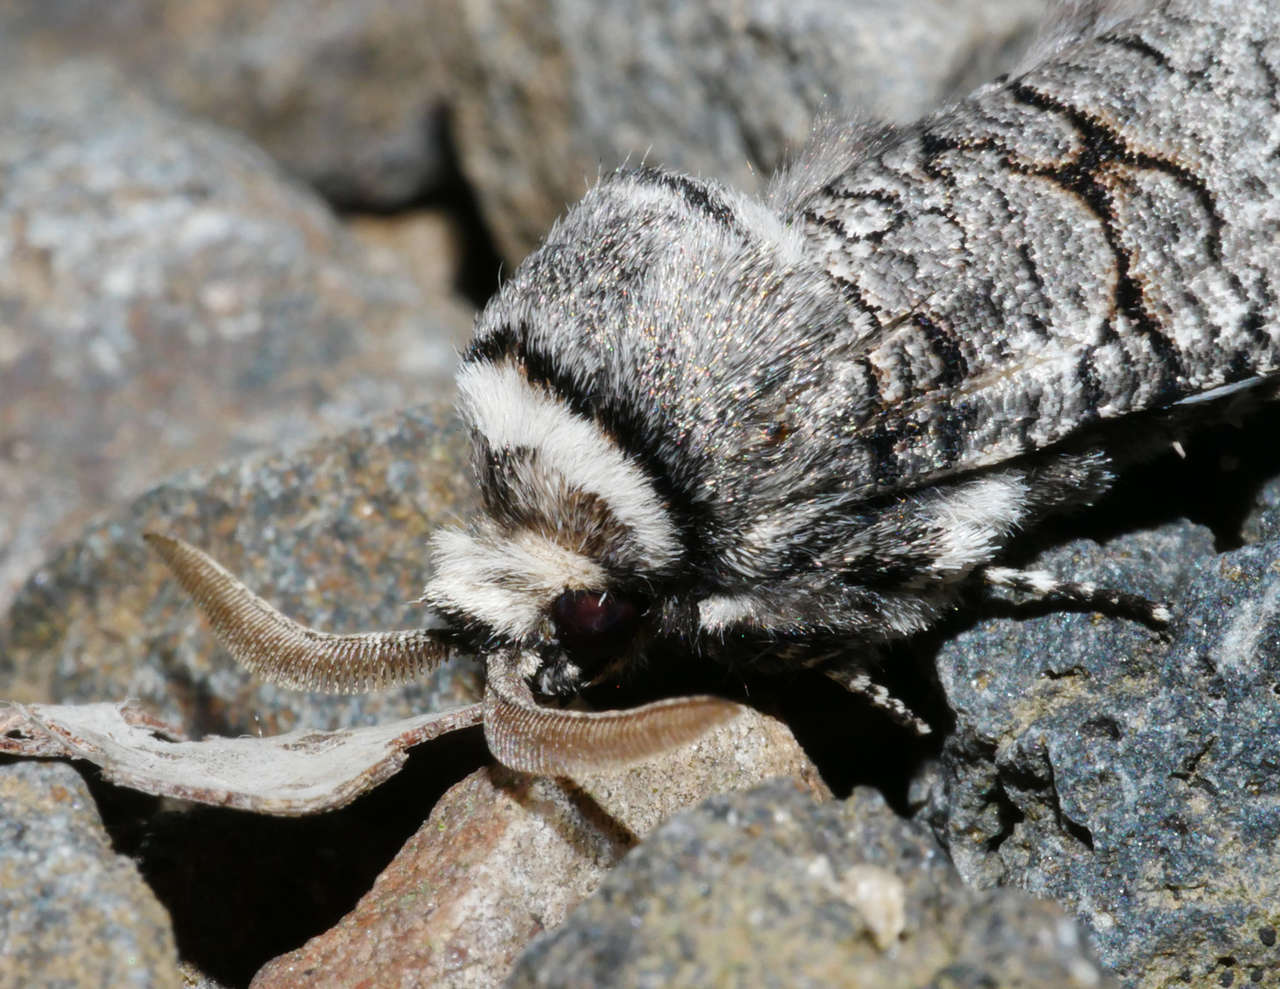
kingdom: Animalia
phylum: Arthropoda
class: Insecta
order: Lepidoptera
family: Cossidae
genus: Zyganisus
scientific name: Zyganisus propedia
